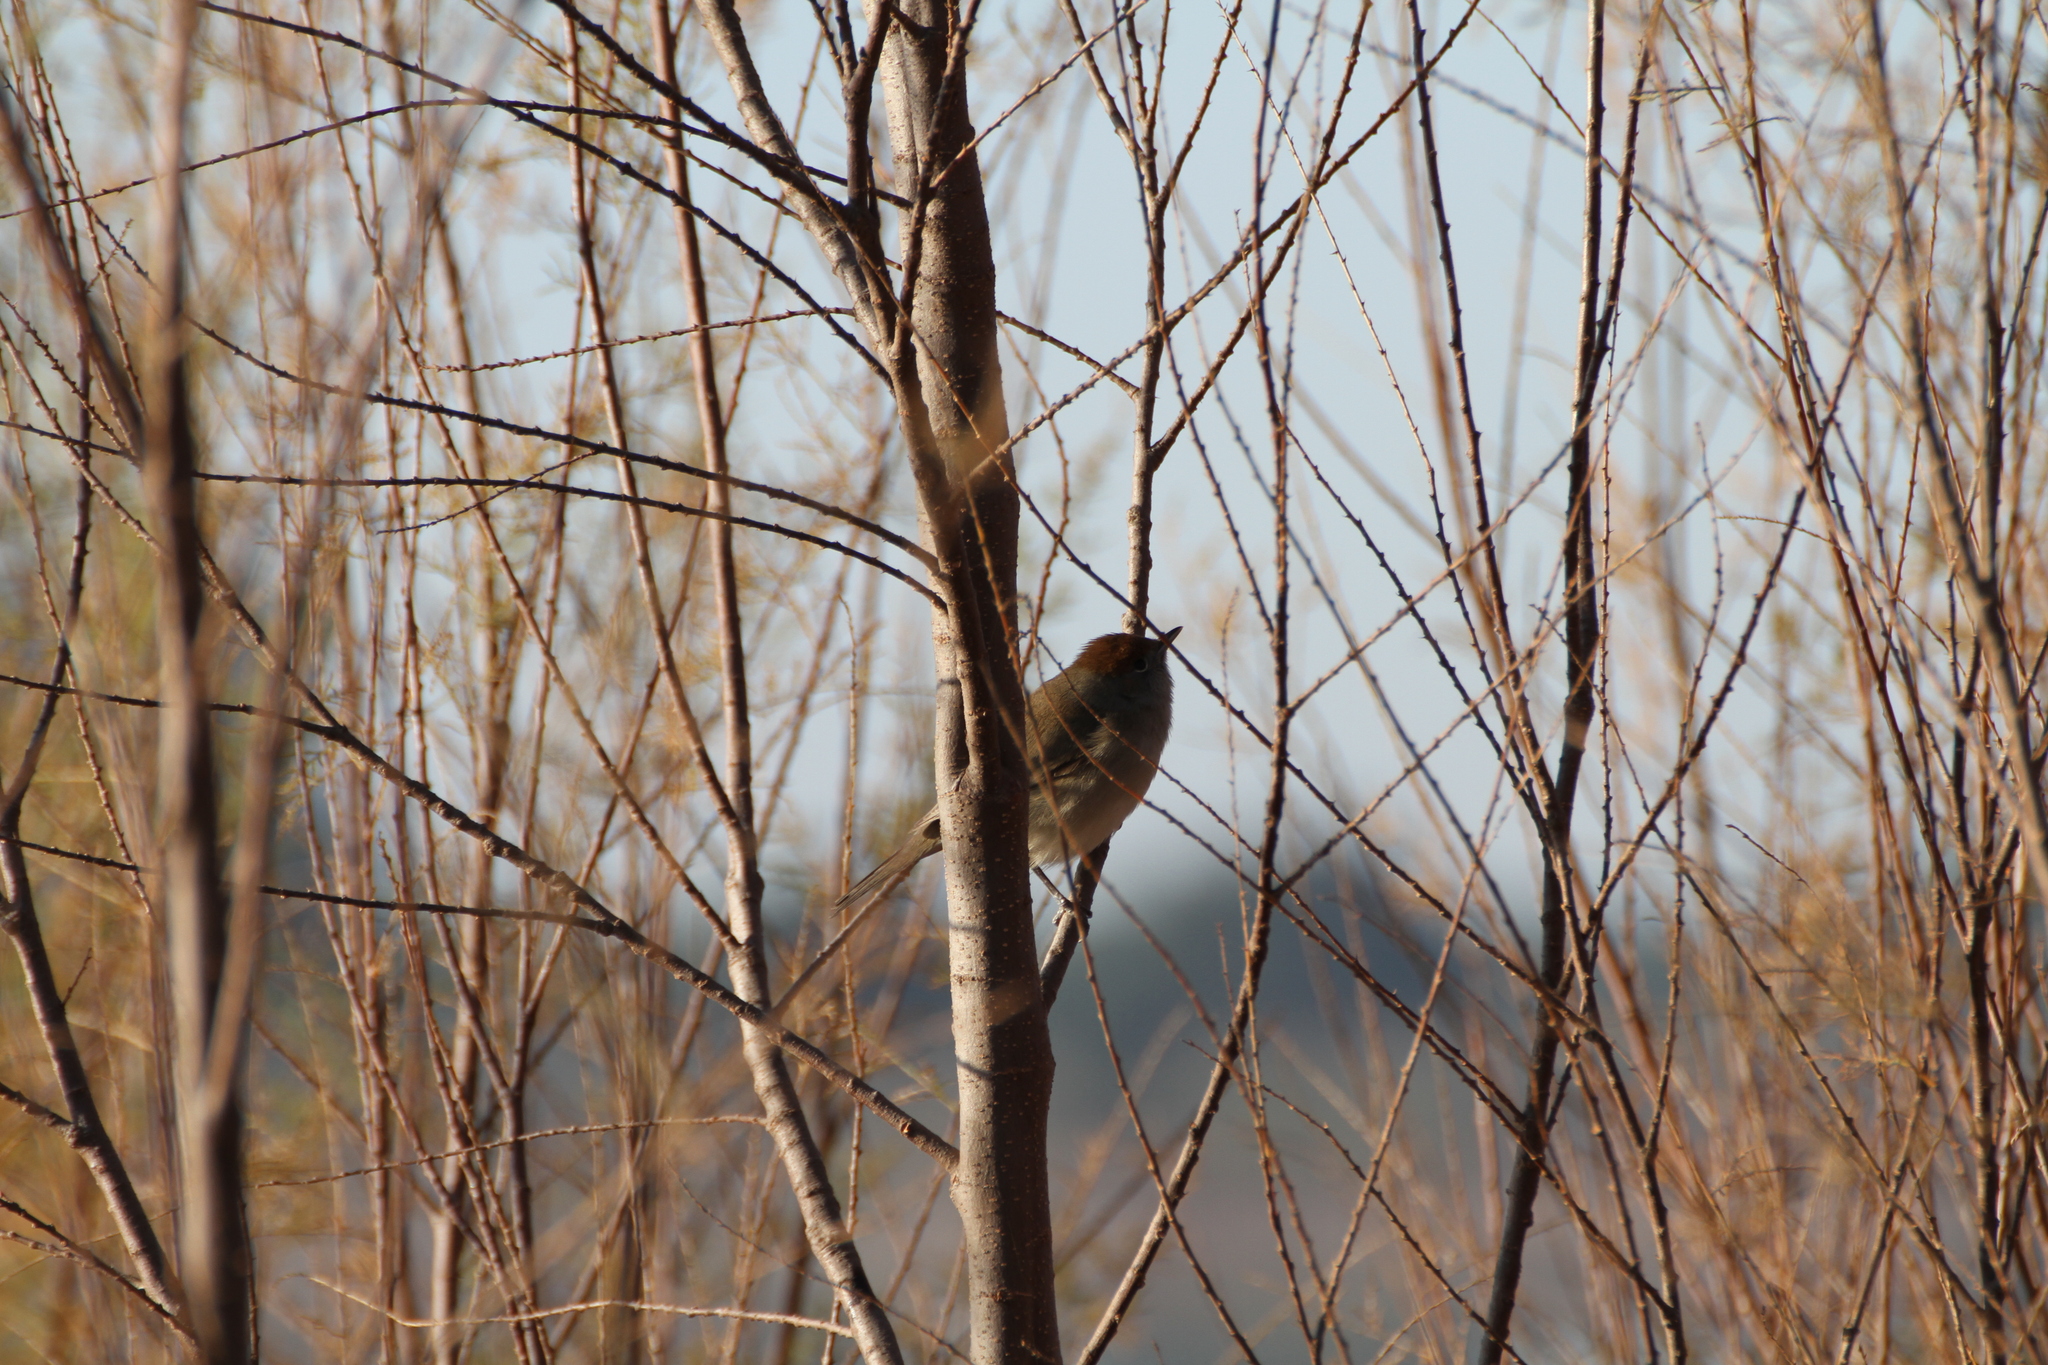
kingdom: Animalia
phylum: Chordata
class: Aves
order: Passeriformes
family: Sylviidae
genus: Sylvia
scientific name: Sylvia atricapilla
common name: Eurasian blackcap
